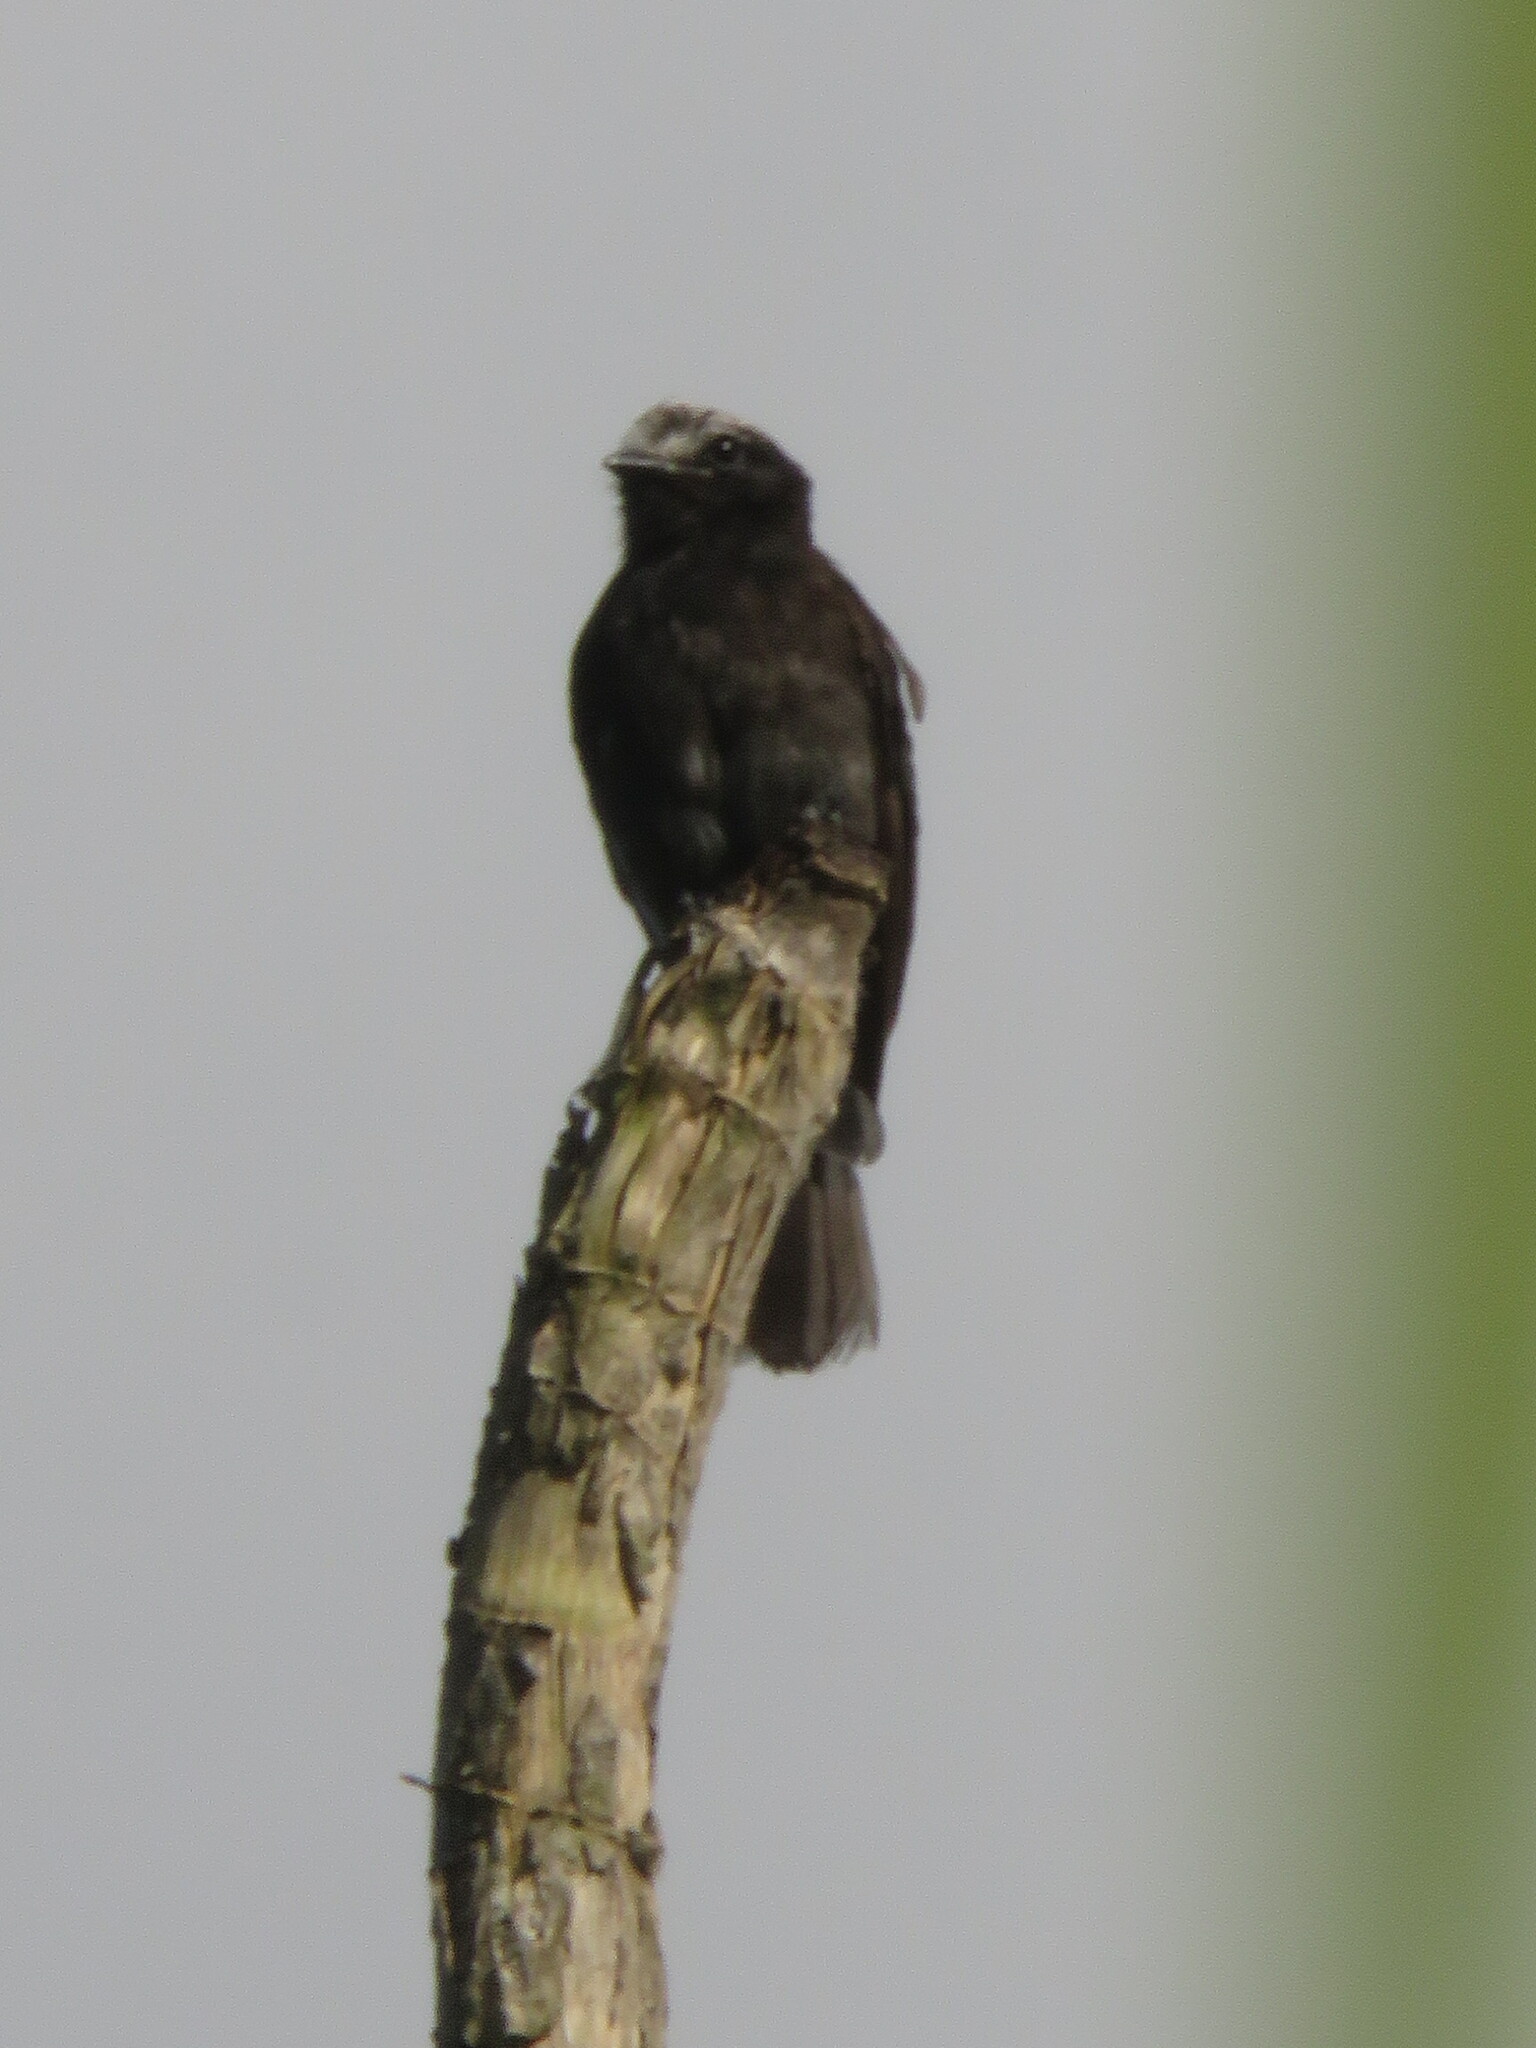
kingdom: Animalia
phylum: Chordata
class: Aves
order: Passeriformes
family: Tyrannidae
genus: Colonia
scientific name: Colonia colonus
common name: Long-tailed tyrant
